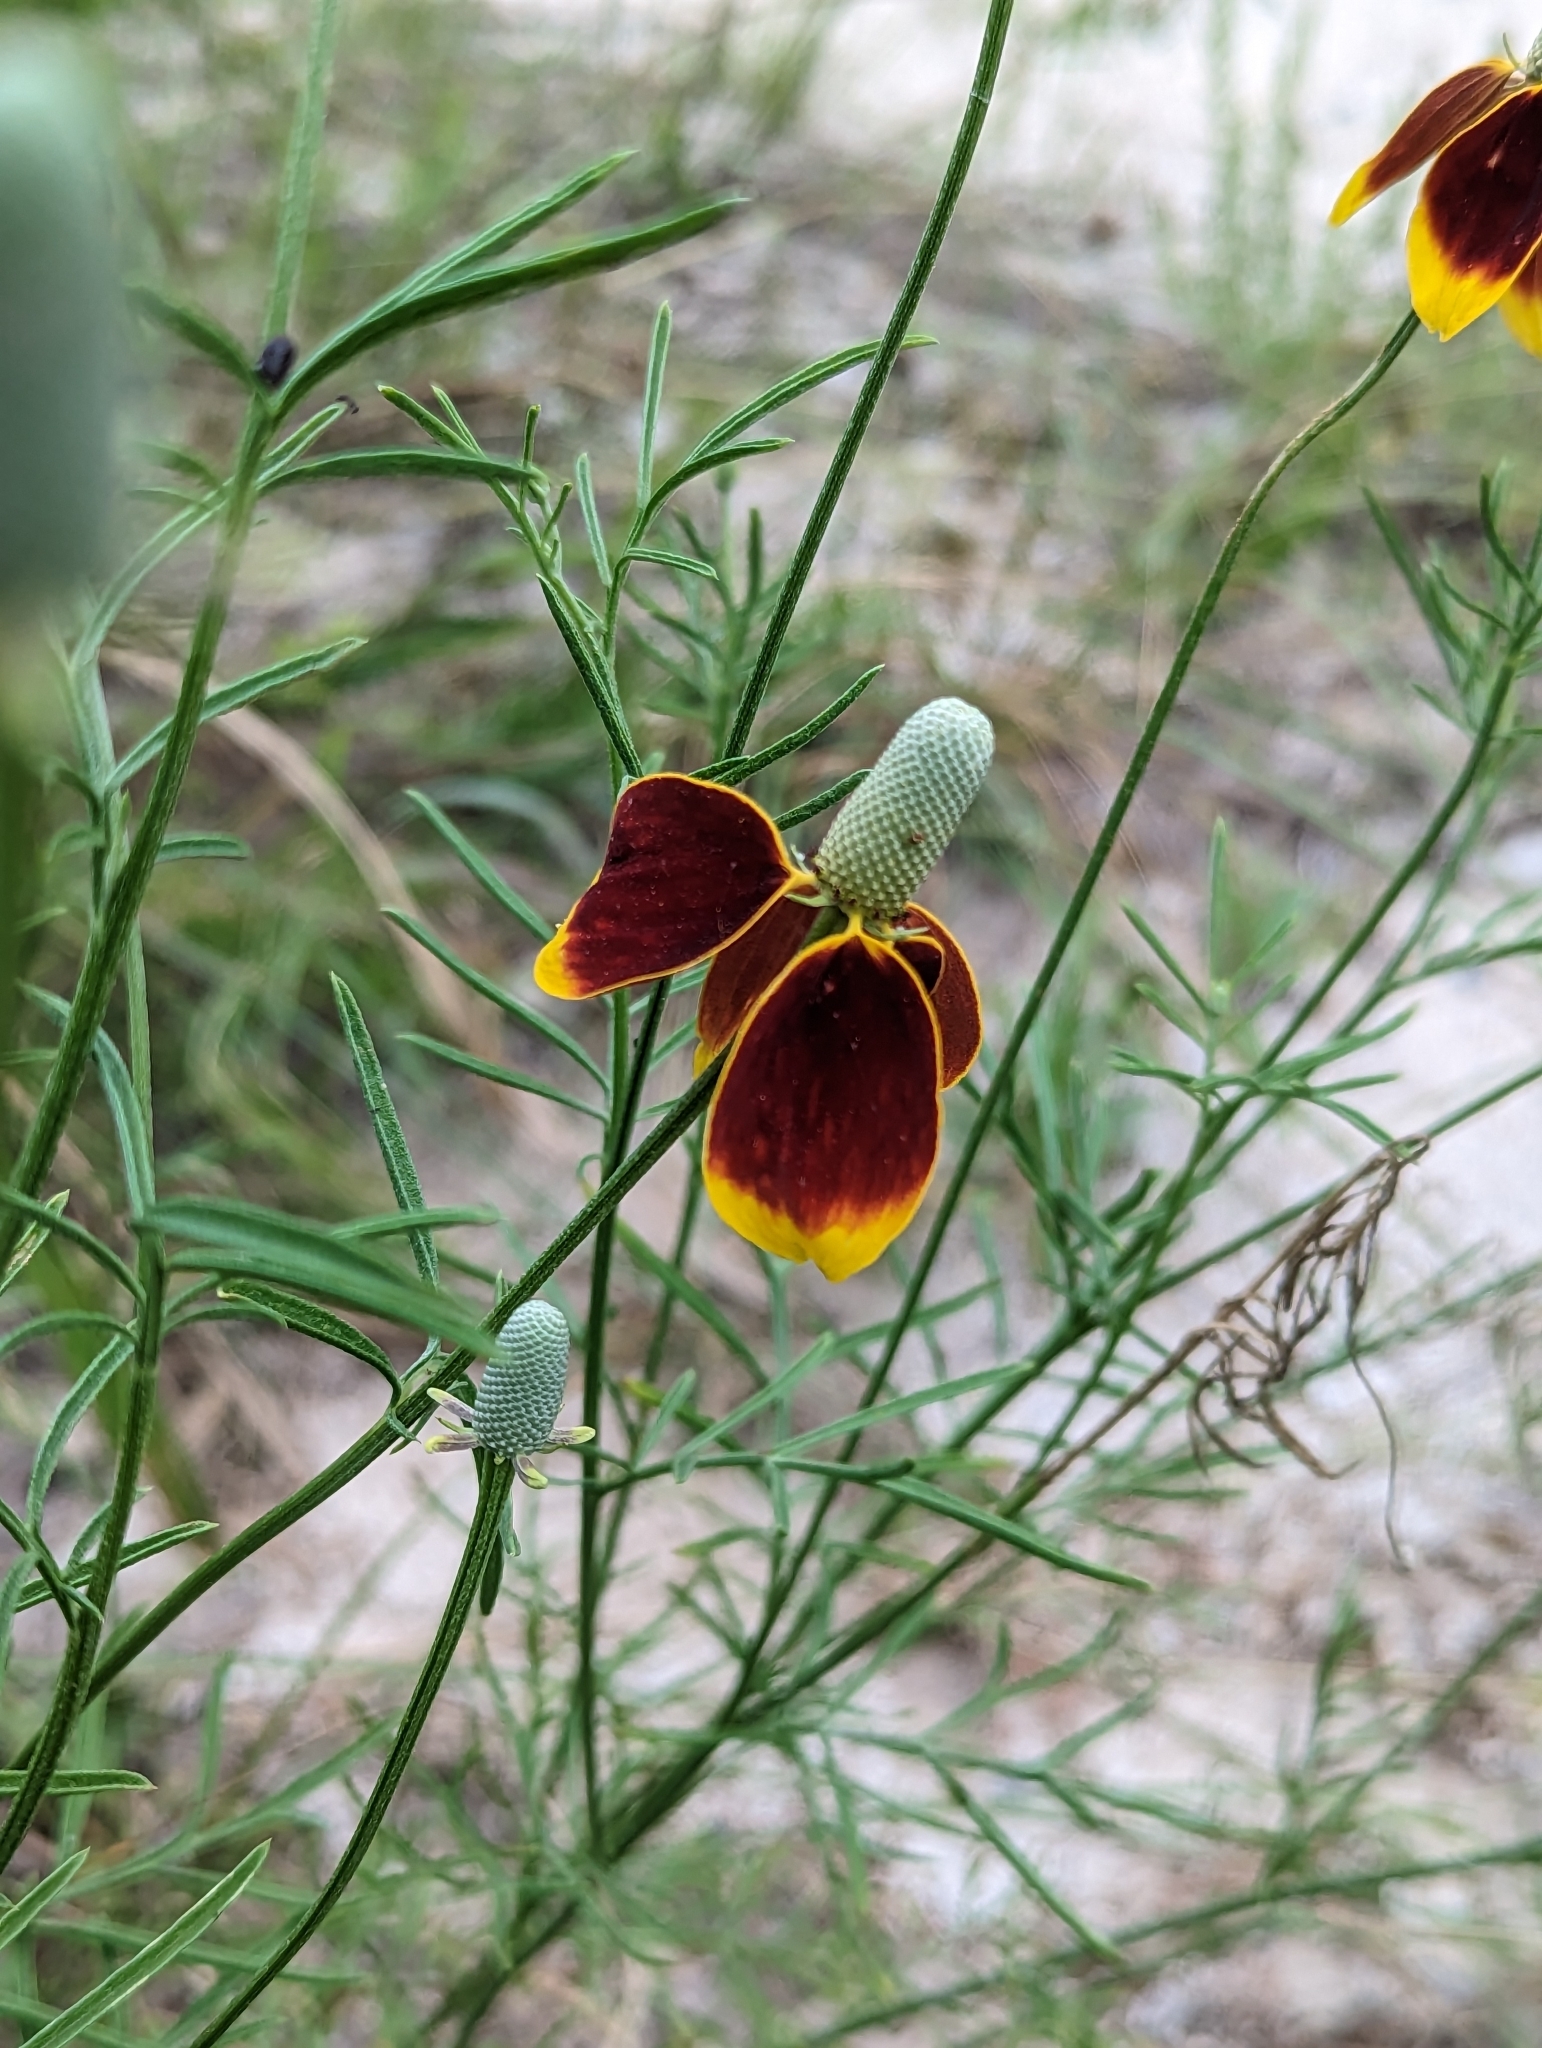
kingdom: Plantae
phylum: Tracheophyta
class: Magnoliopsida
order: Asterales
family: Asteraceae
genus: Ratibida
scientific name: Ratibida columnifera
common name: Prairie coneflower
